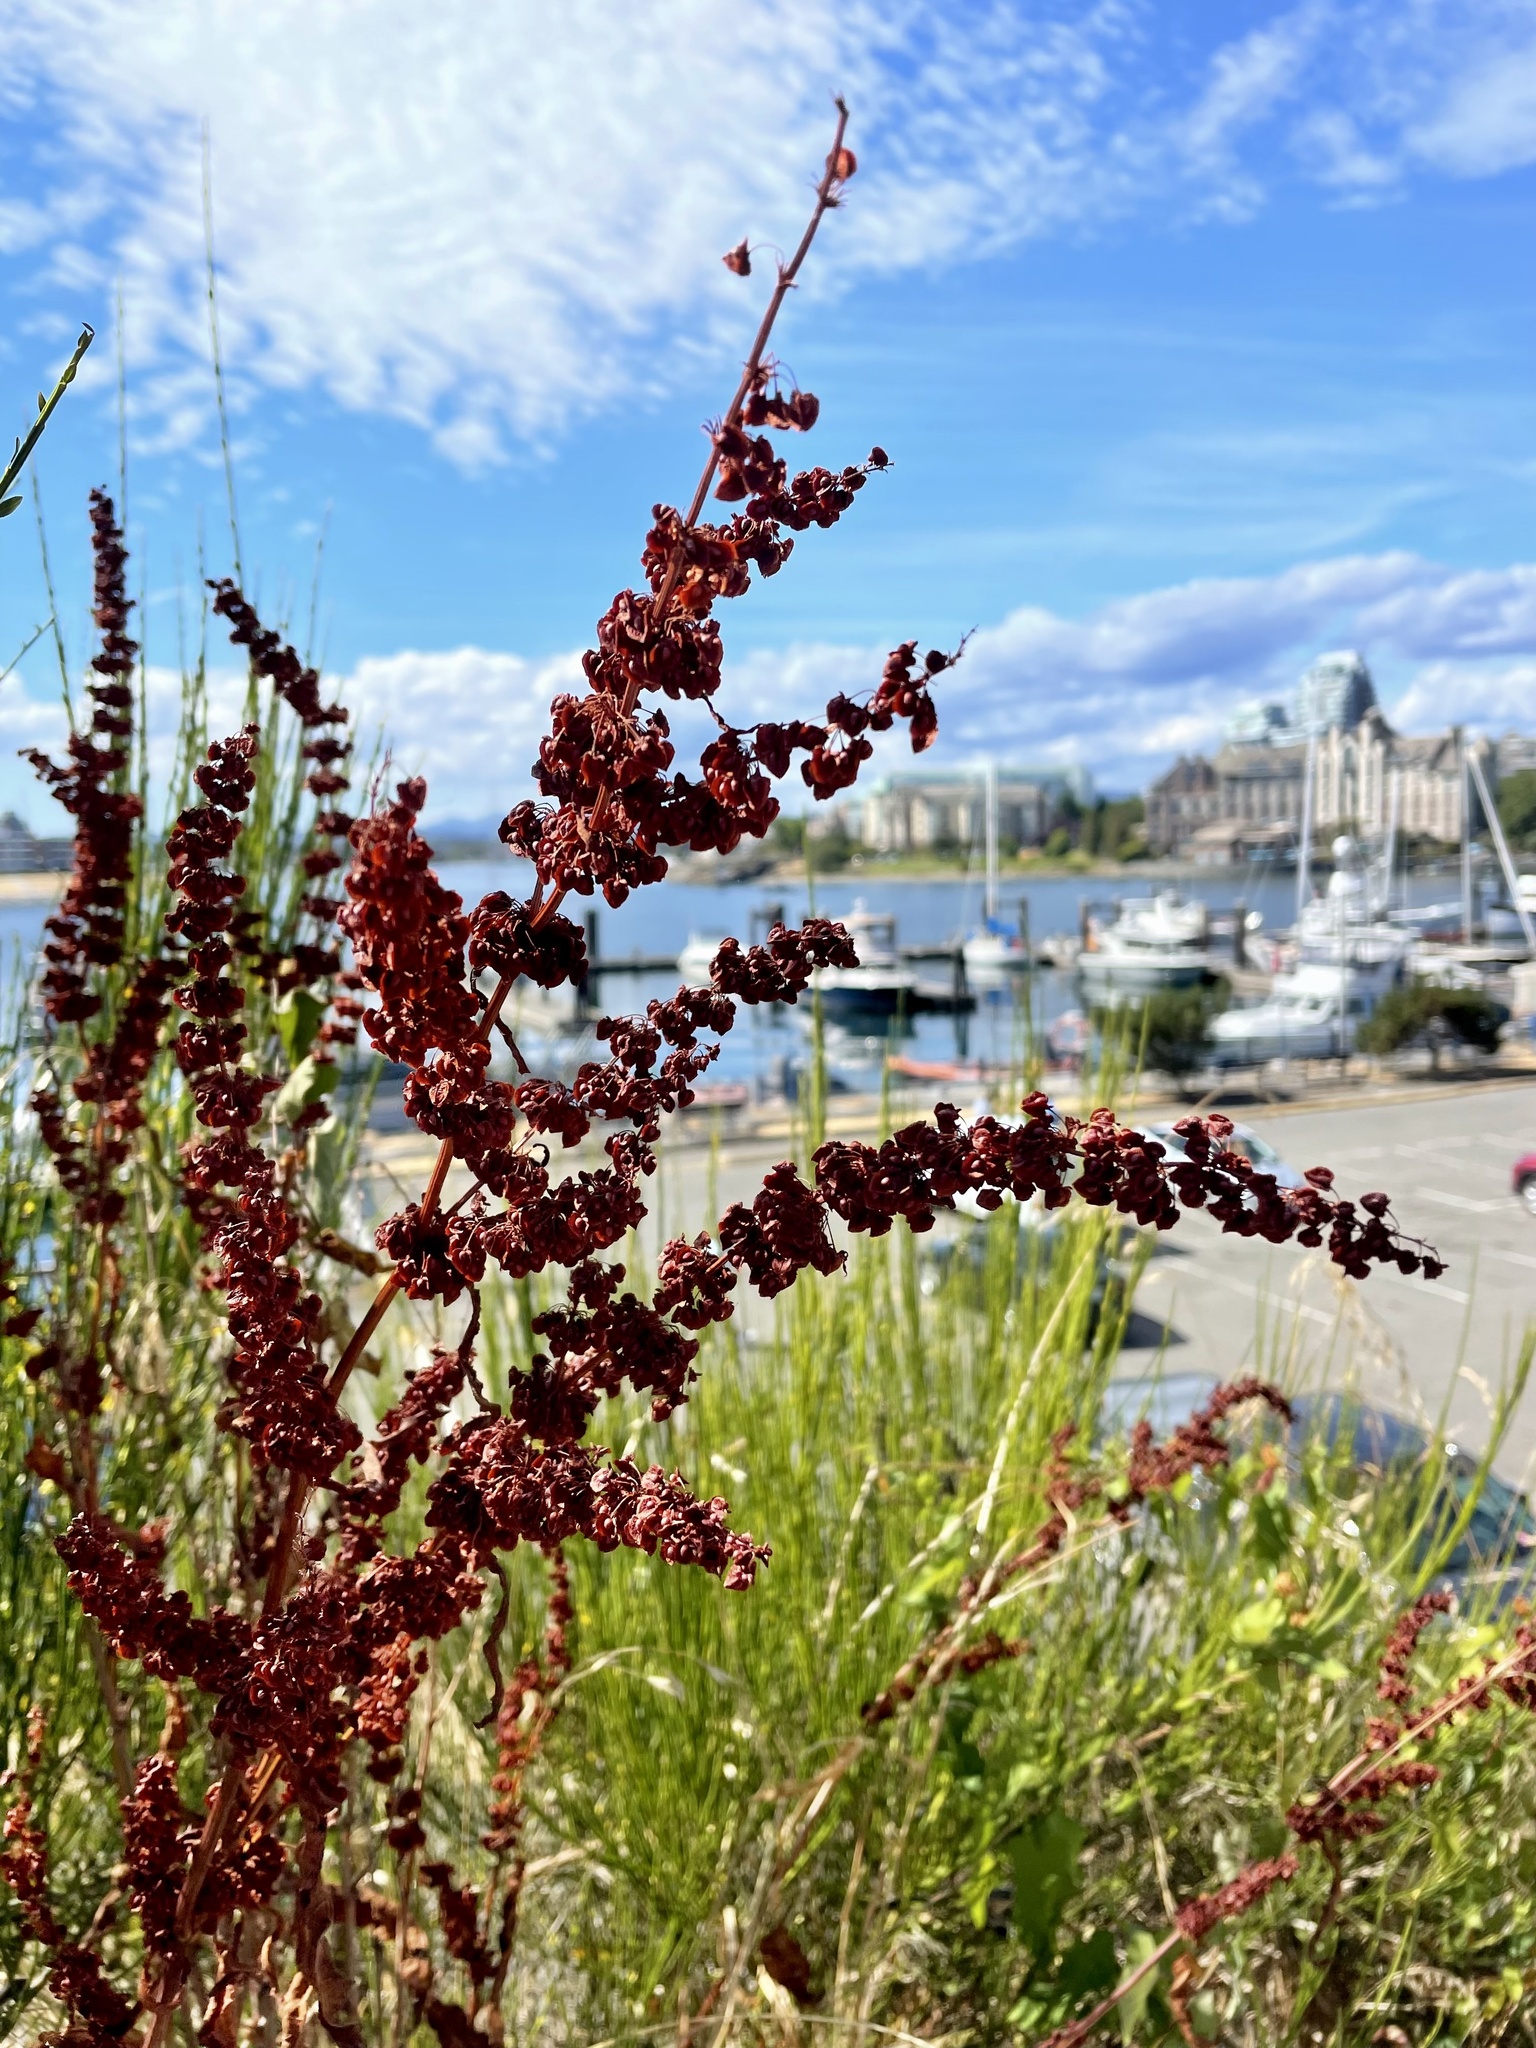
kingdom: Plantae
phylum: Tracheophyta
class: Magnoliopsida
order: Caryophyllales
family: Polygonaceae
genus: Rumex
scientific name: Rumex crispus
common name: Curled dock
